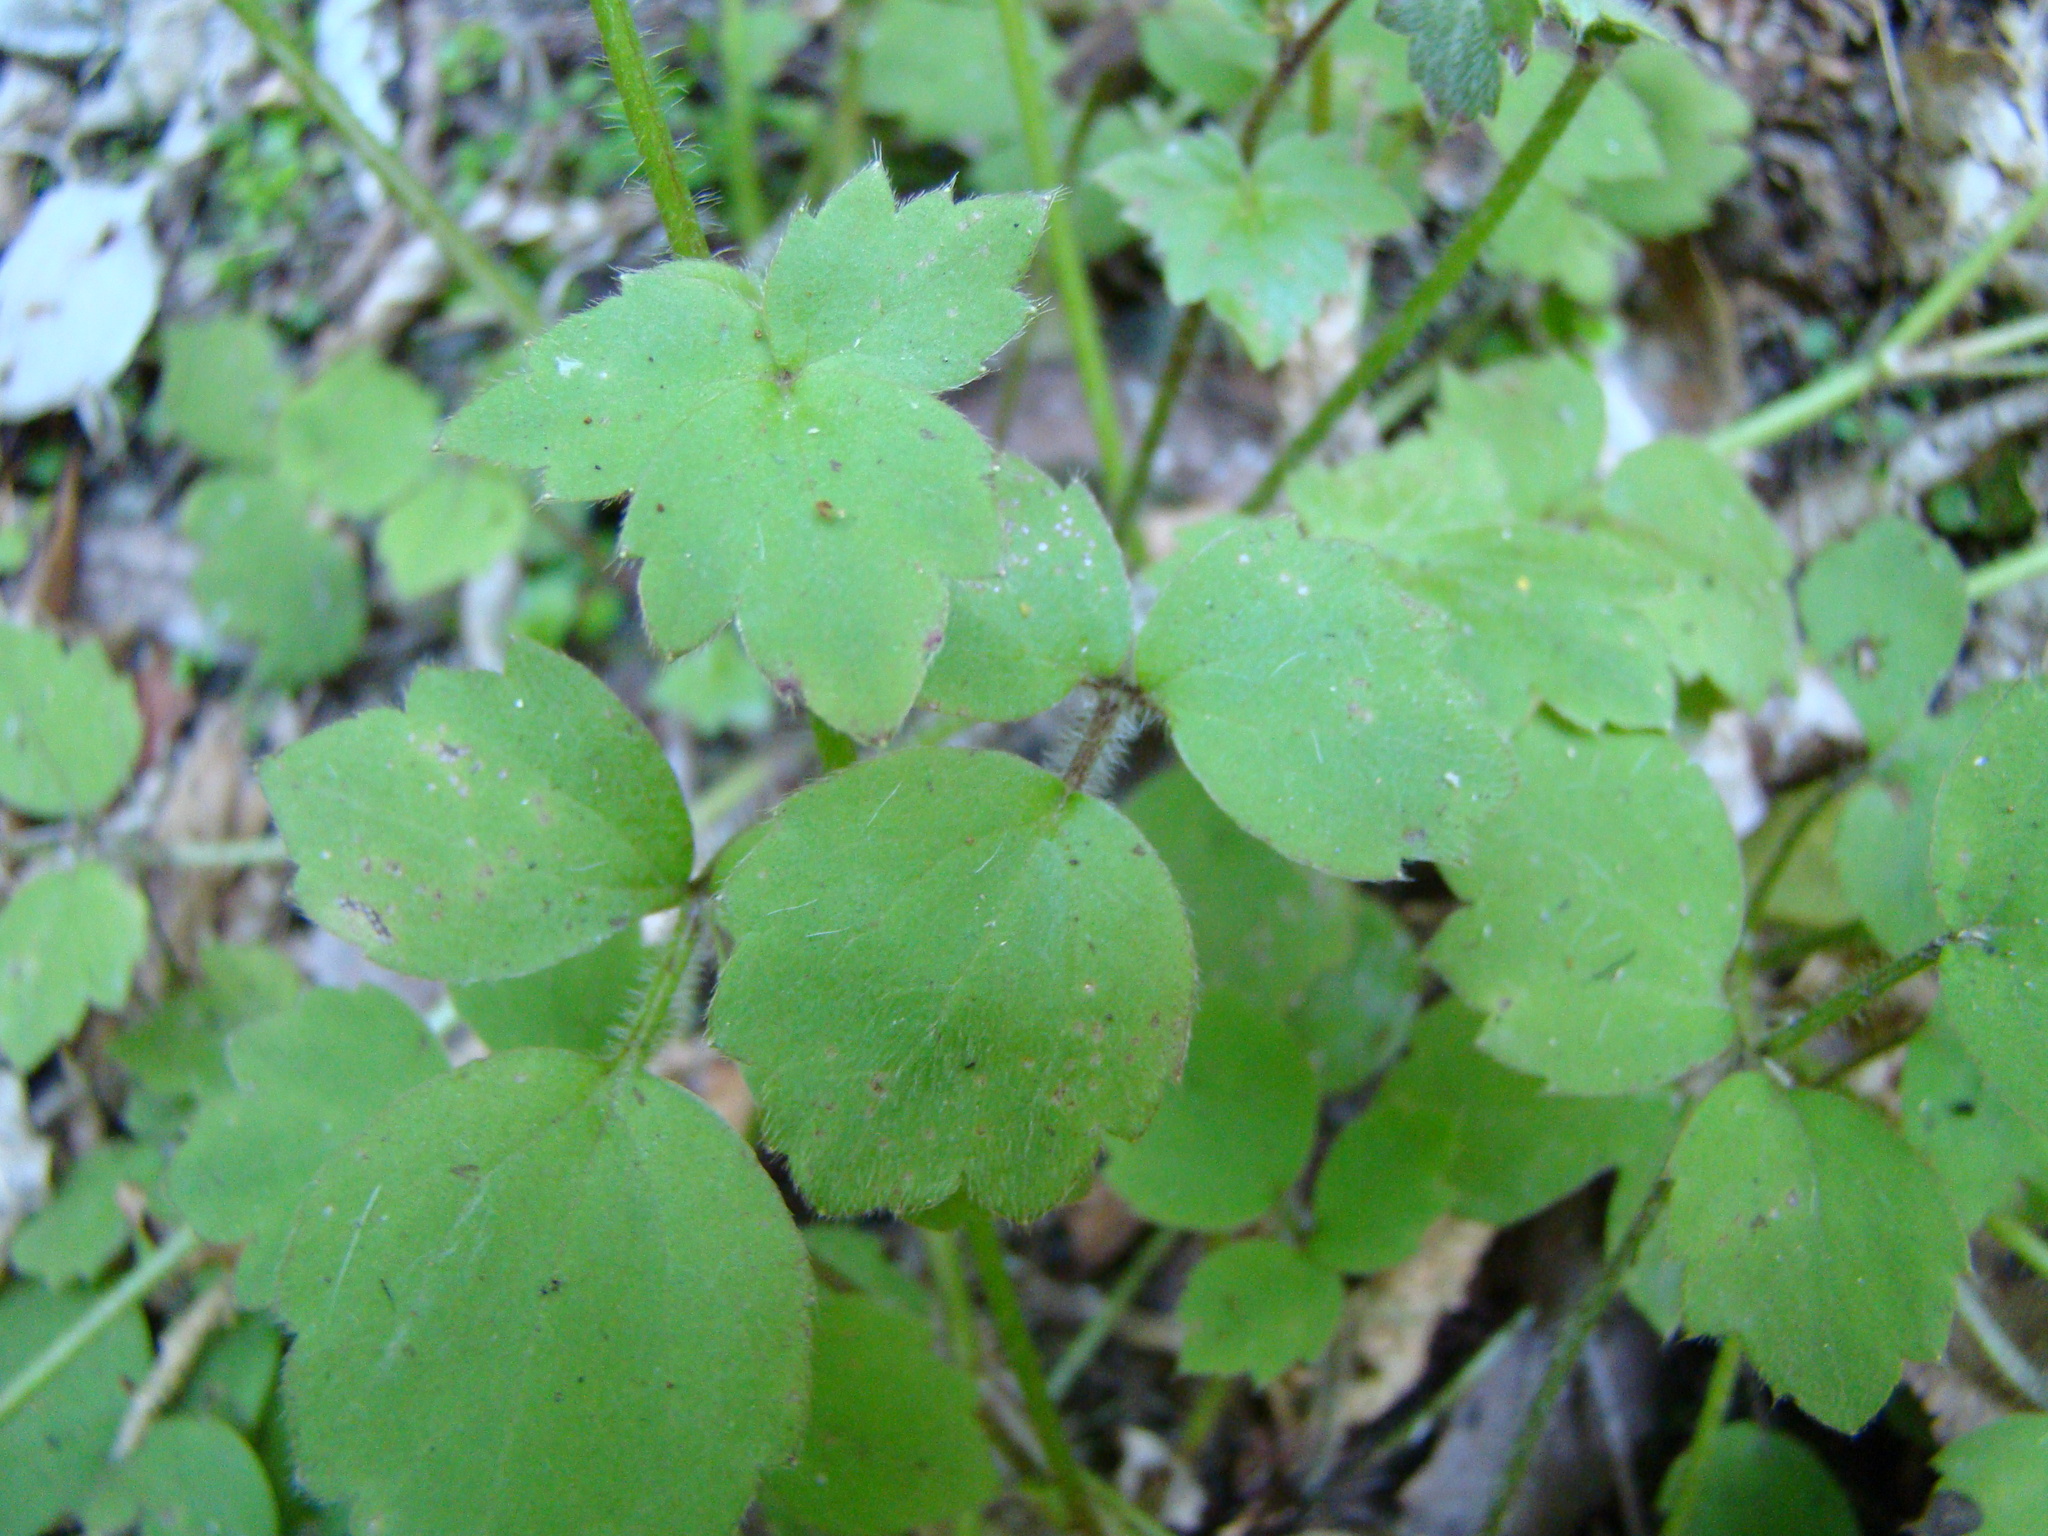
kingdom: Plantae
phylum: Tracheophyta
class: Magnoliopsida
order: Ranunculales
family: Ranunculaceae
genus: Ranunculus
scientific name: Ranunculus reflexus
